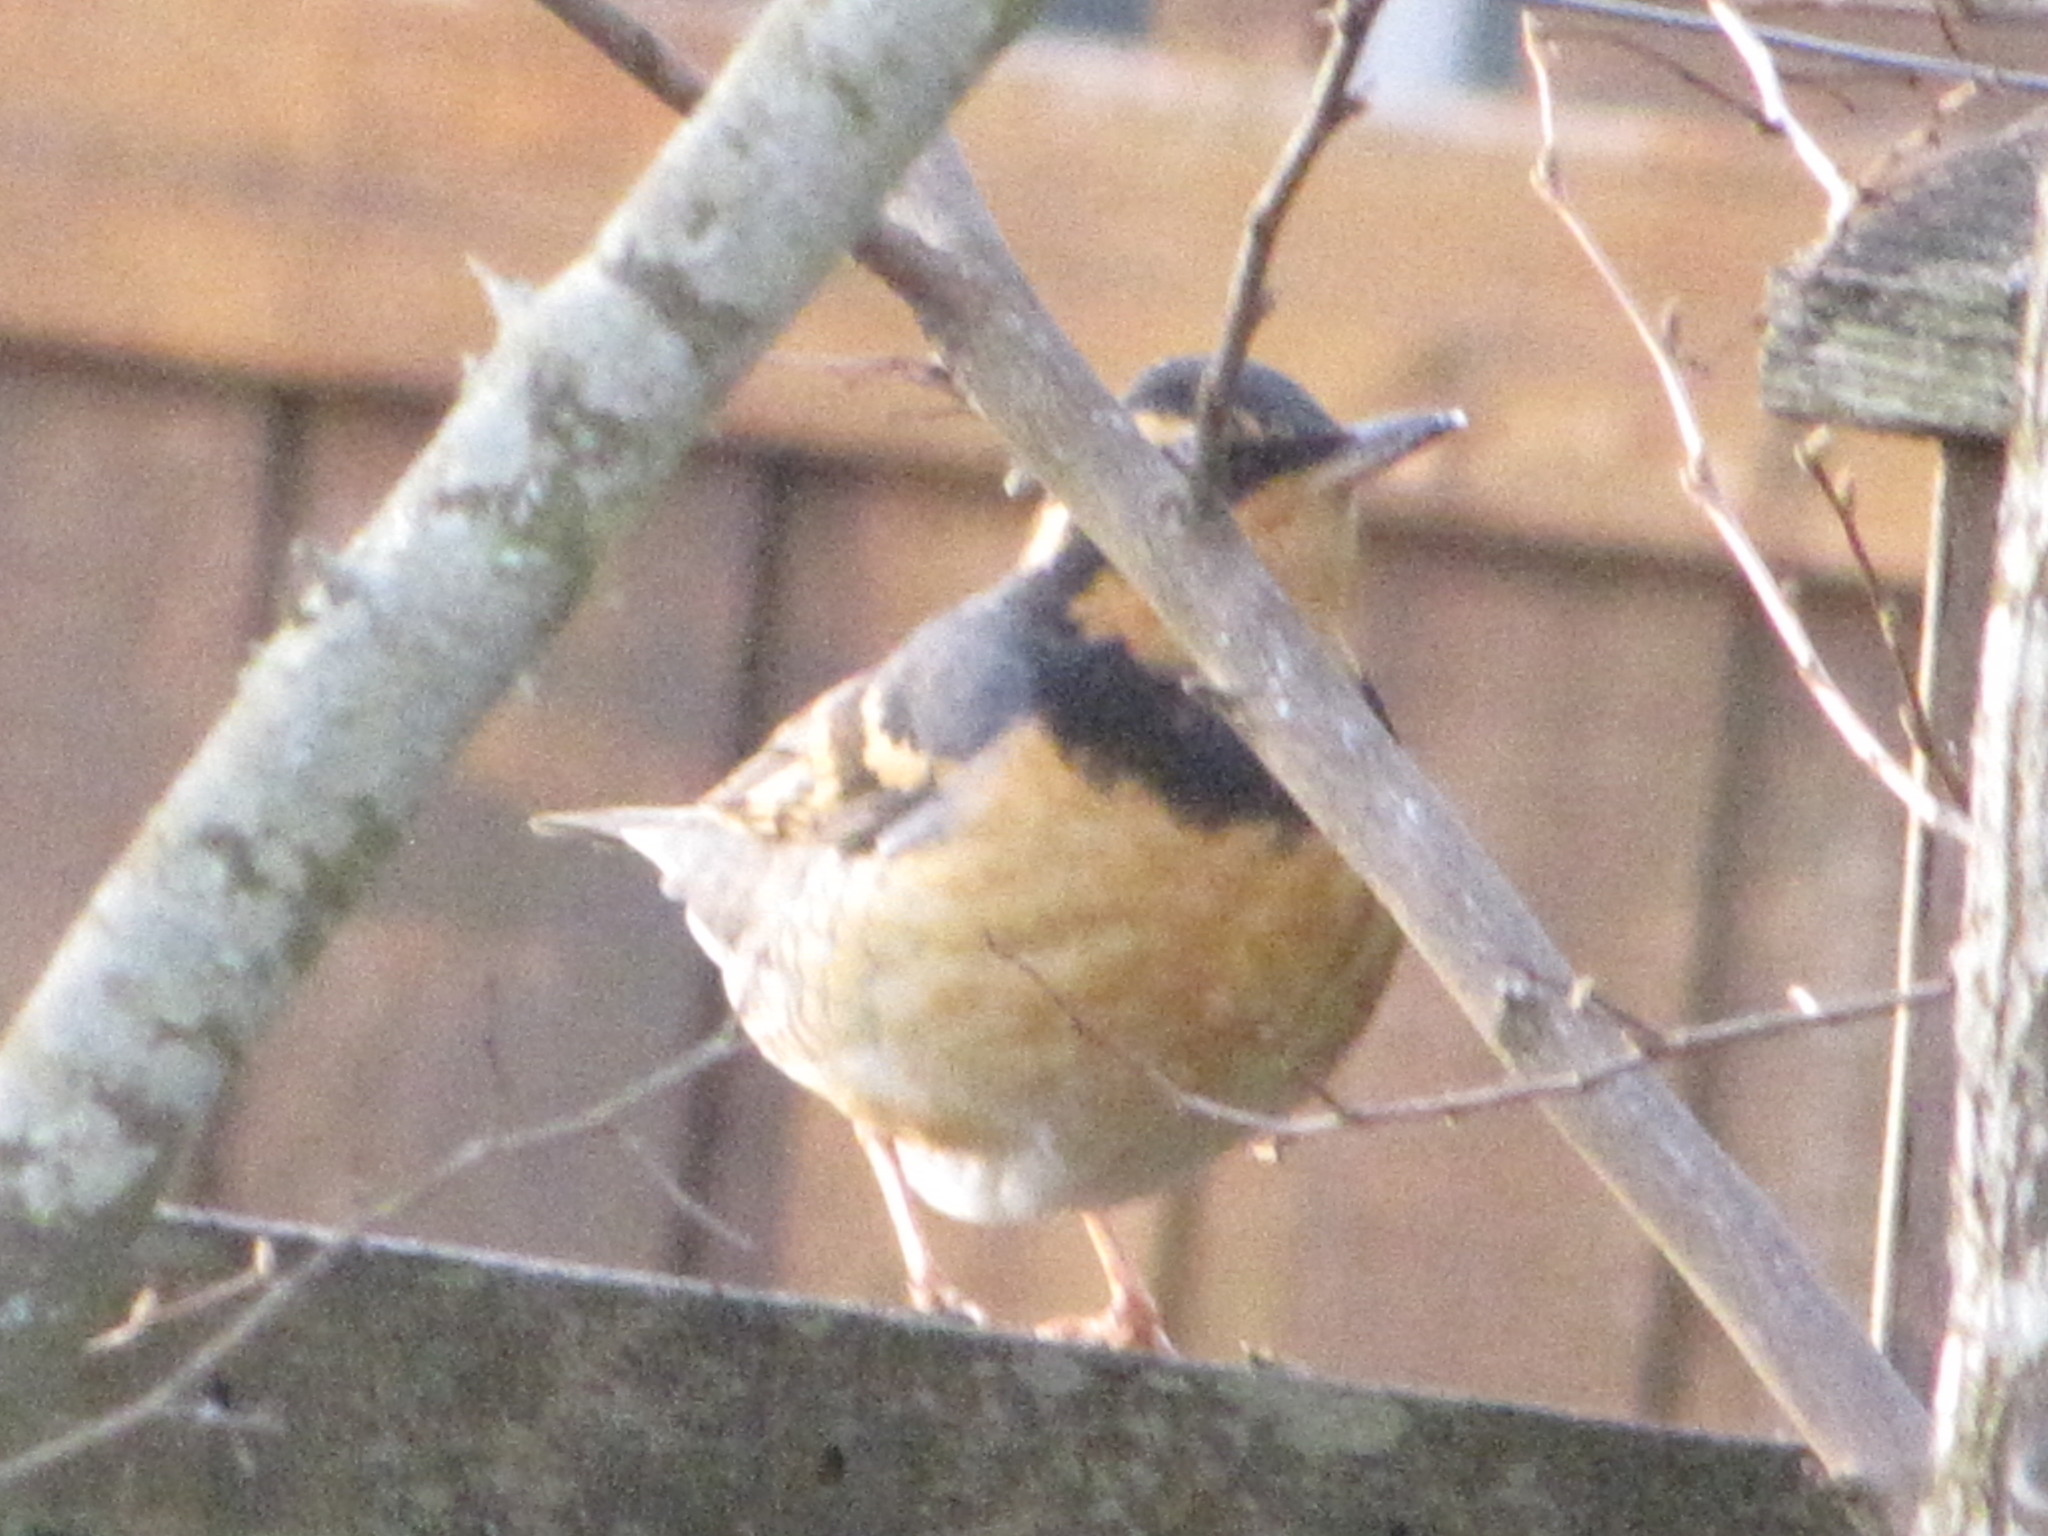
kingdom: Animalia
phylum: Chordata
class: Aves
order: Passeriformes
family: Turdidae
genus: Ixoreus
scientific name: Ixoreus naevius
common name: Varied thrush
